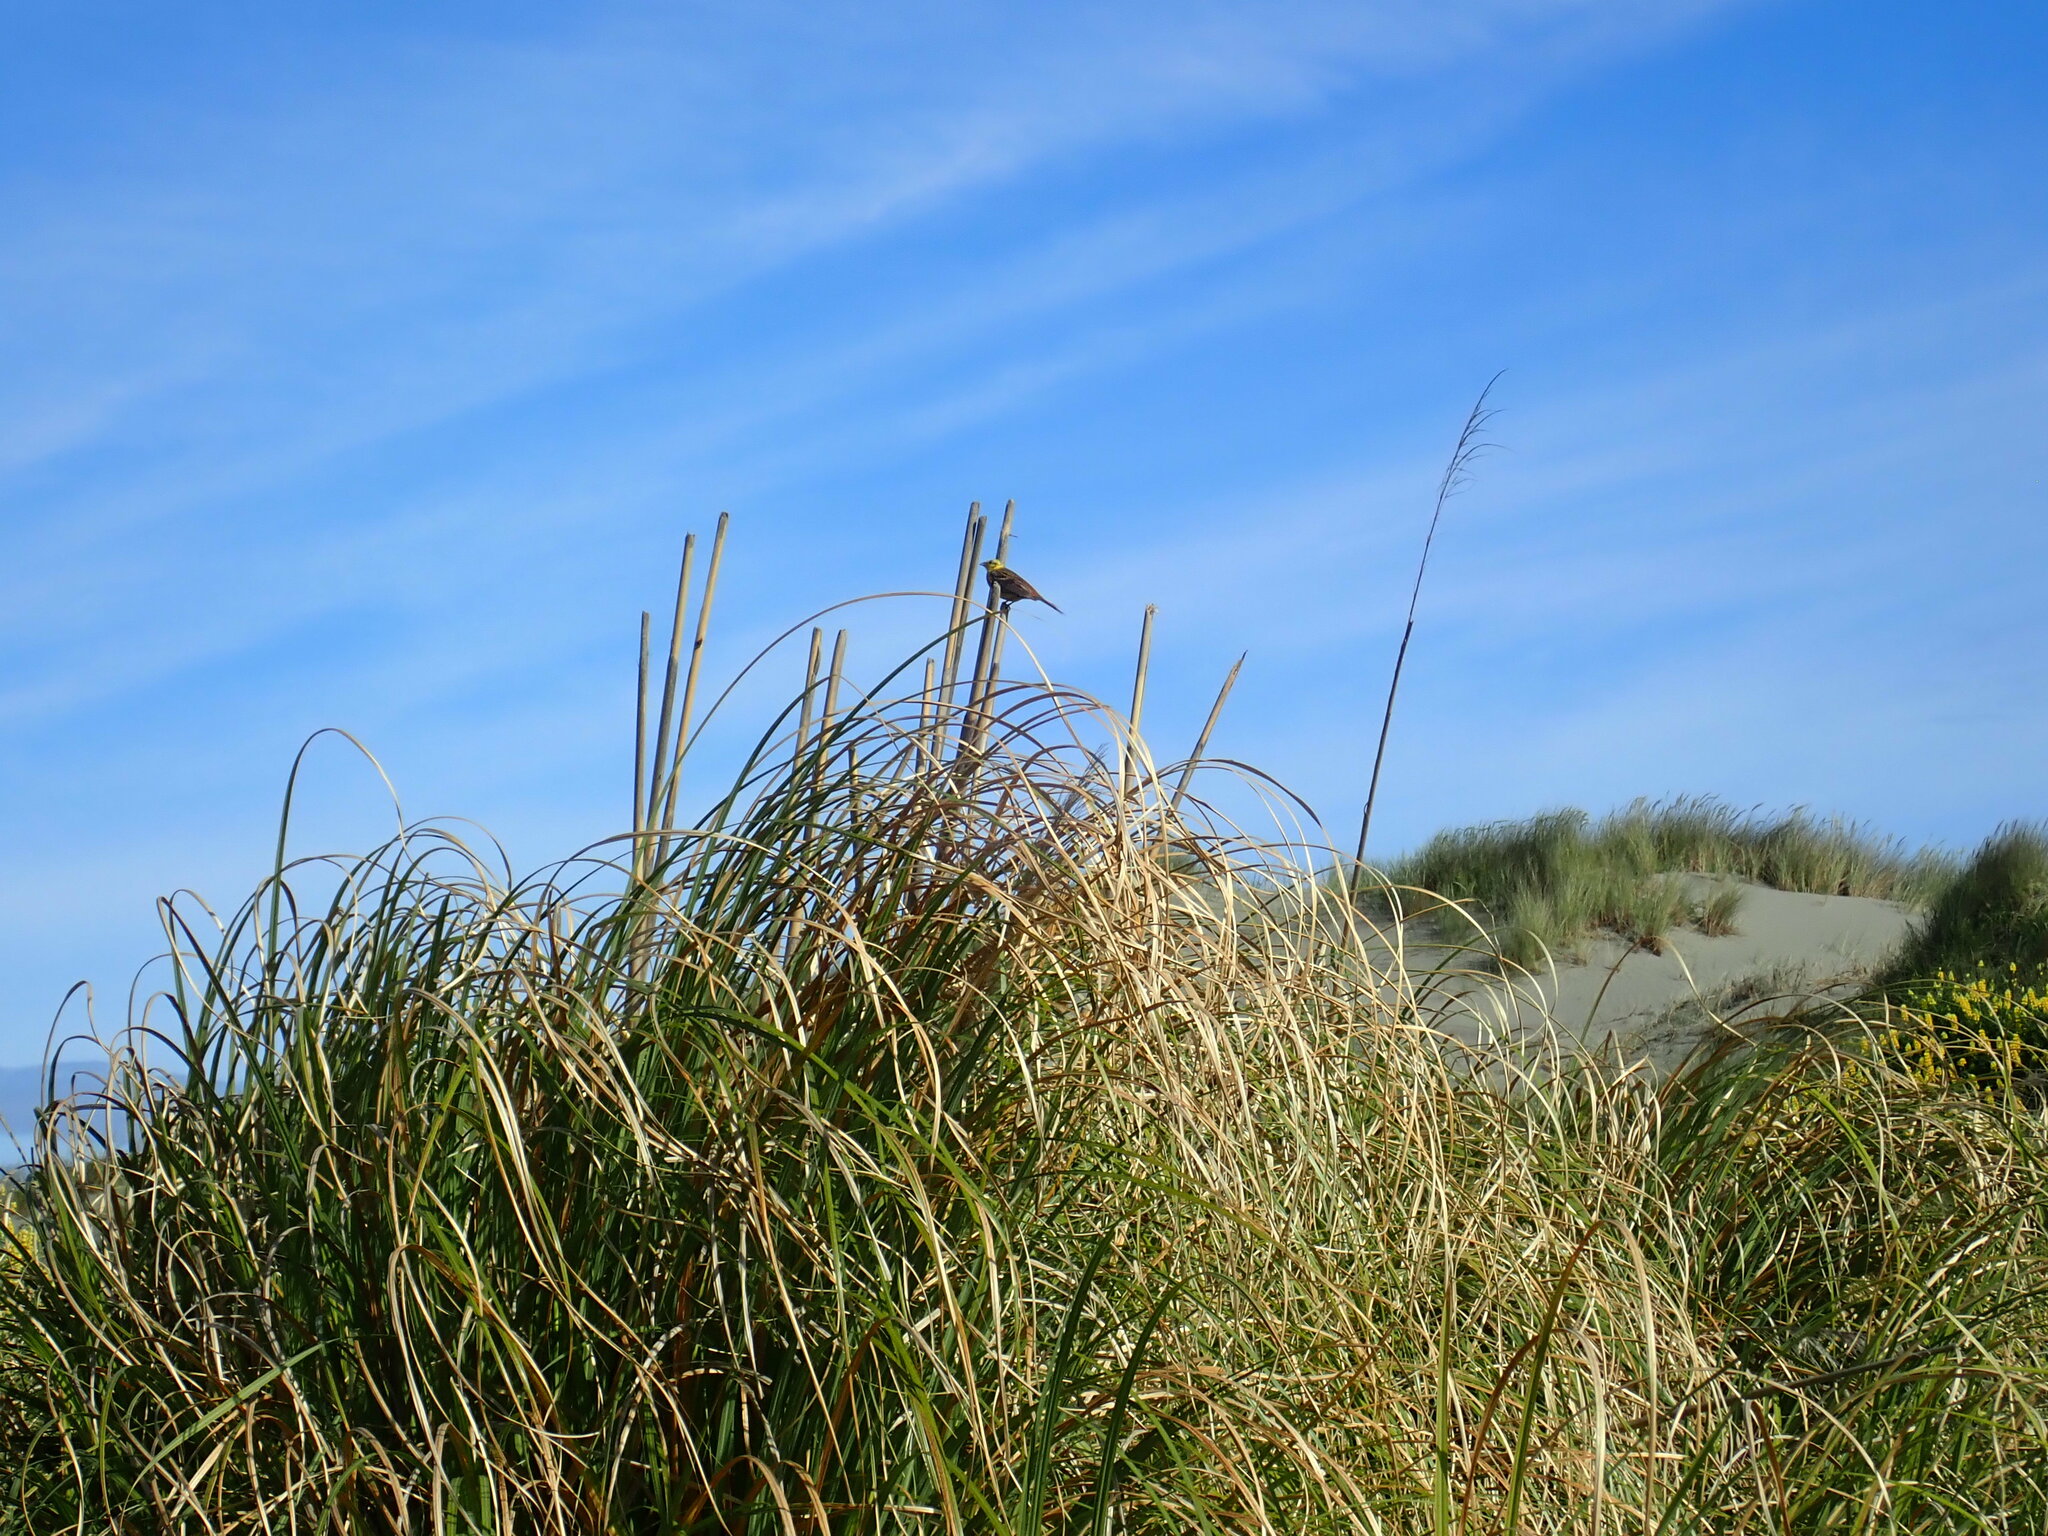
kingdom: Animalia
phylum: Chordata
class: Aves
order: Passeriformes
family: Emberizidae
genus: Emberiza
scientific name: Emberiza citrinella
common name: Yellowhammer
